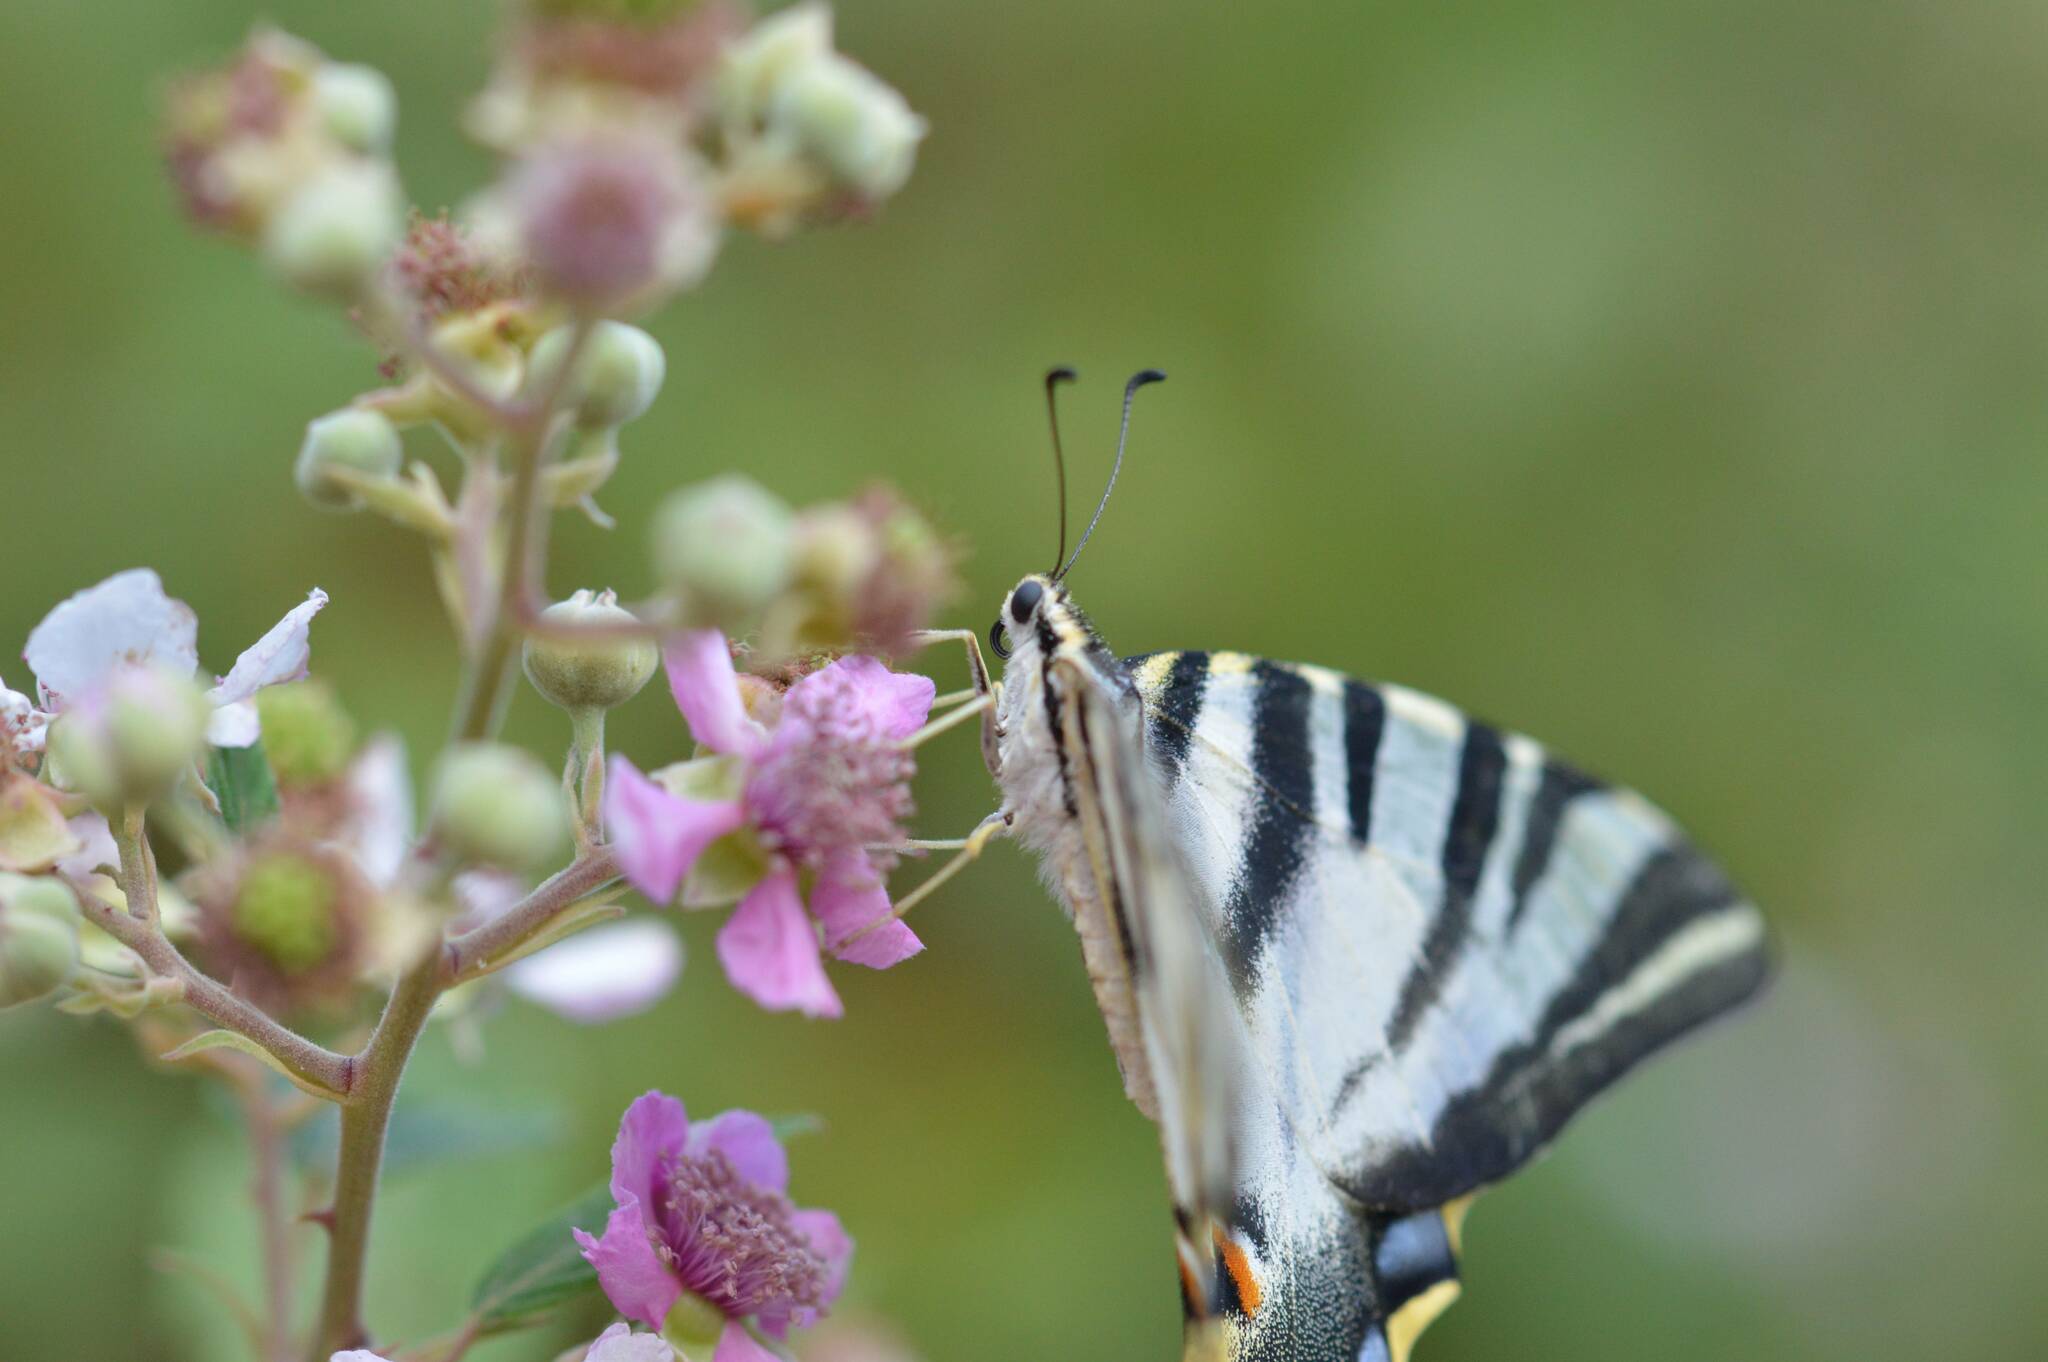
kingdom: Animalia
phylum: Arthropoda
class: Insecta
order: Lepidoptera
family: Papilionidae
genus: Iphiclides
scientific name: Iphiclides feisthamelii
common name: Iberian scarce swallowtail
